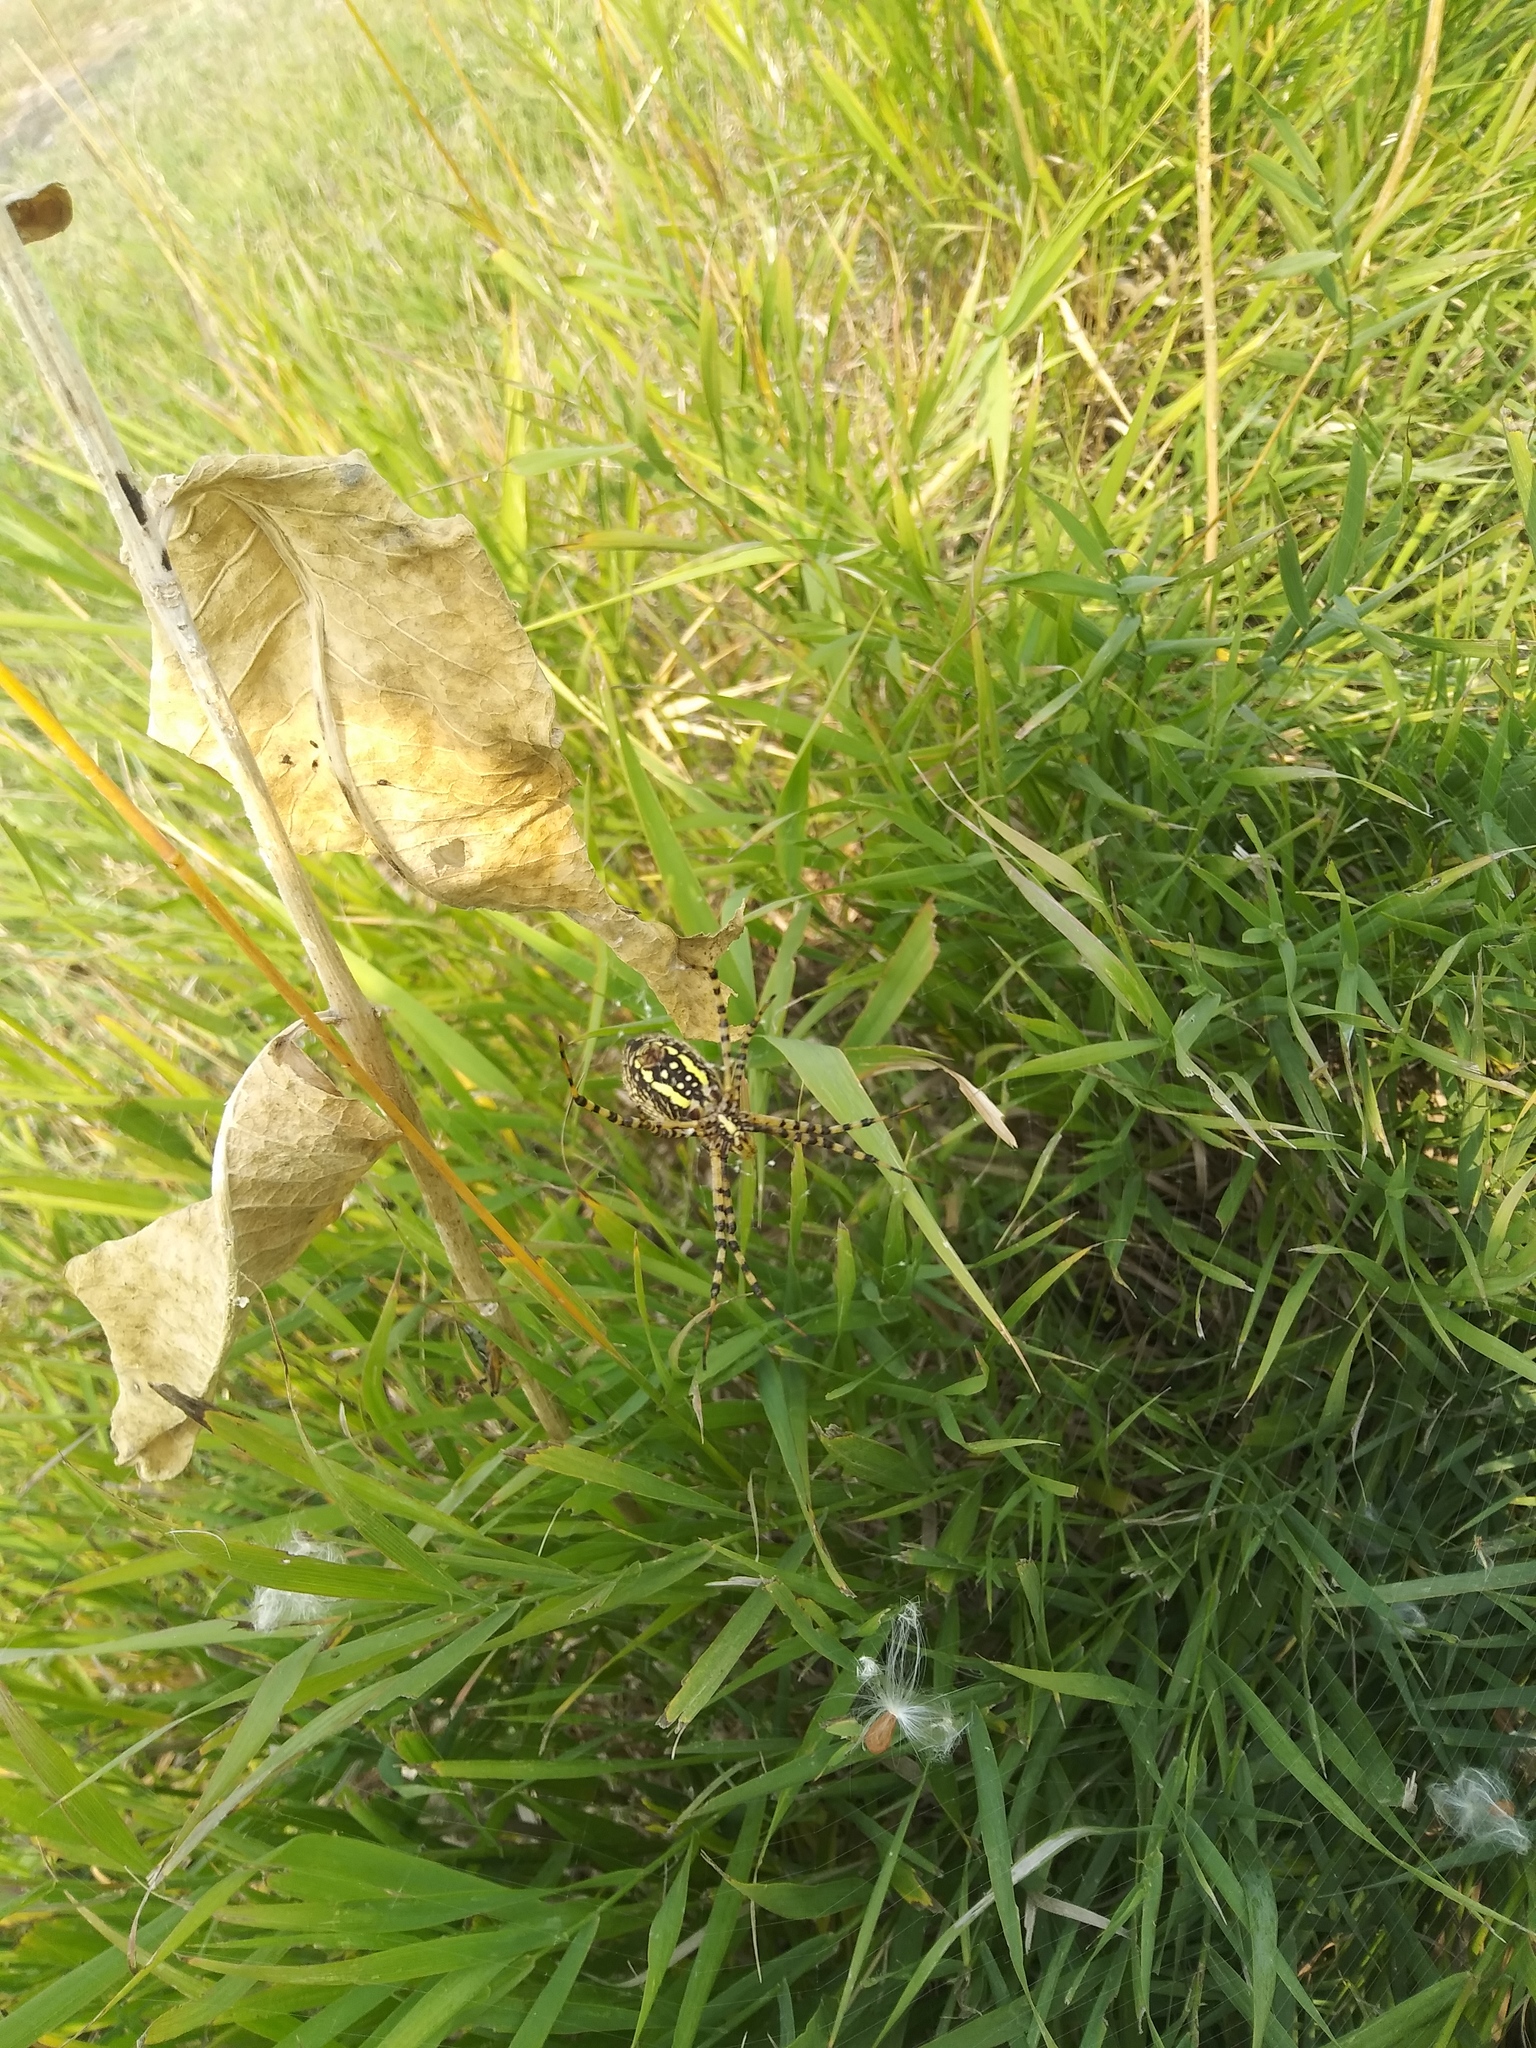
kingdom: Animalia
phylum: Arthropoda
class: Arachnida
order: Araneae
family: Araneidae
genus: Argiope
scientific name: Argiope trifasciata
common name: Banded garden spider
